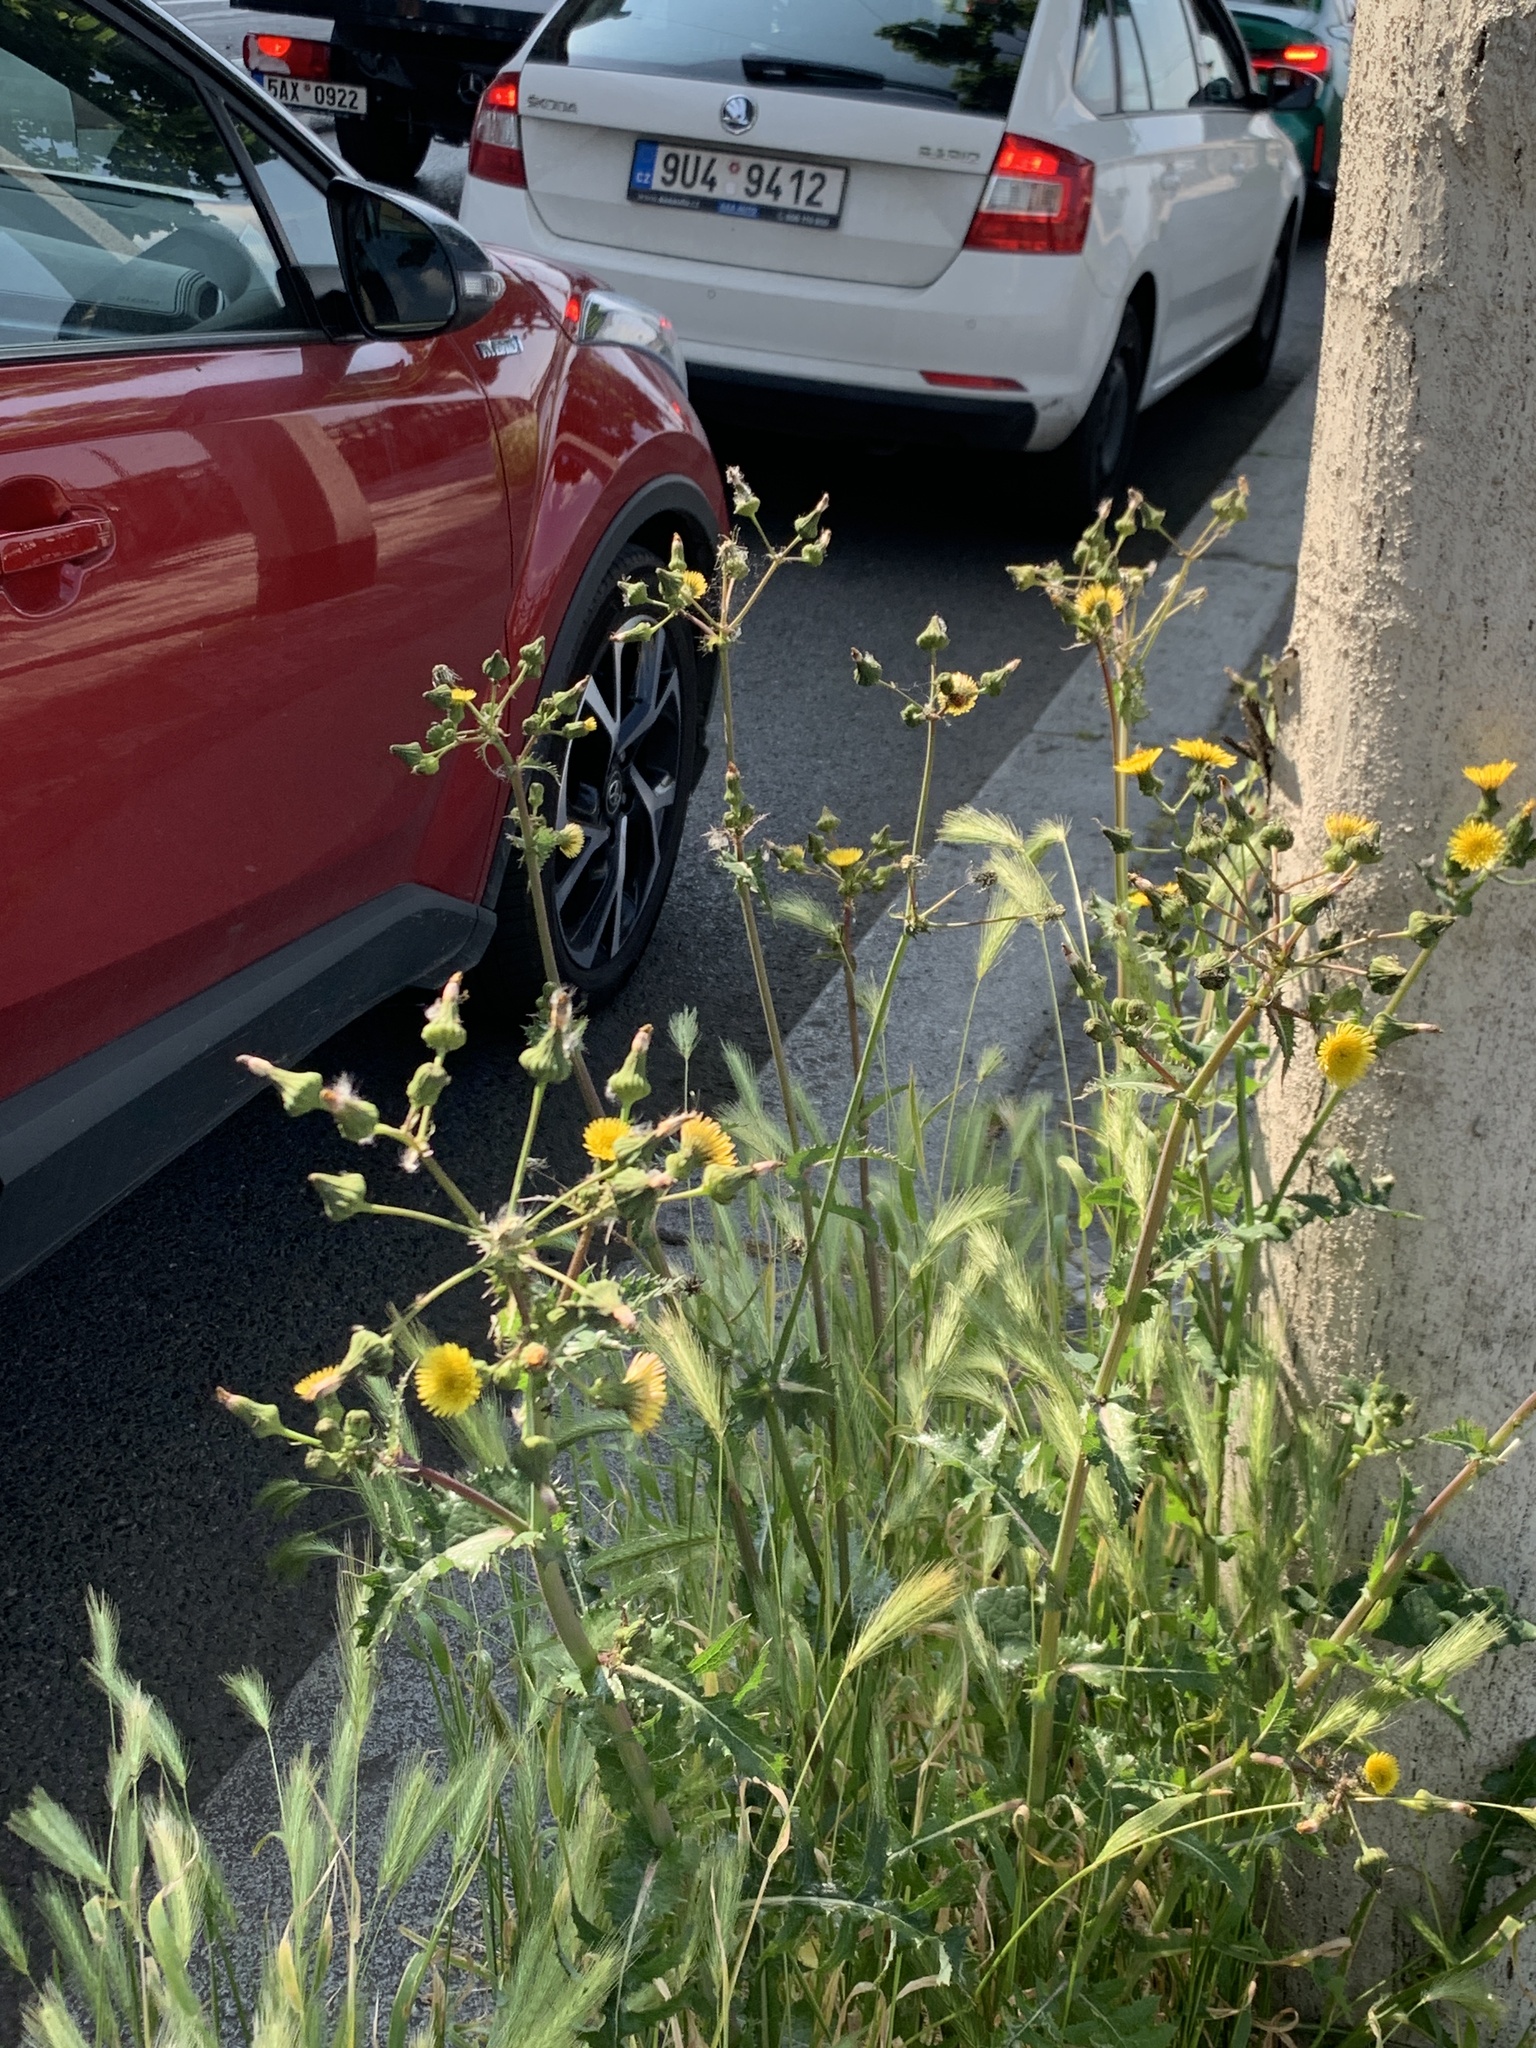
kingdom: Plantae
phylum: Tracheophyta
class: Magnoliopsida
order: Asterales
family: Asteraceae
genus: Sonchus
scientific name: Sonchus asper
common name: Prickly sow-thistle
